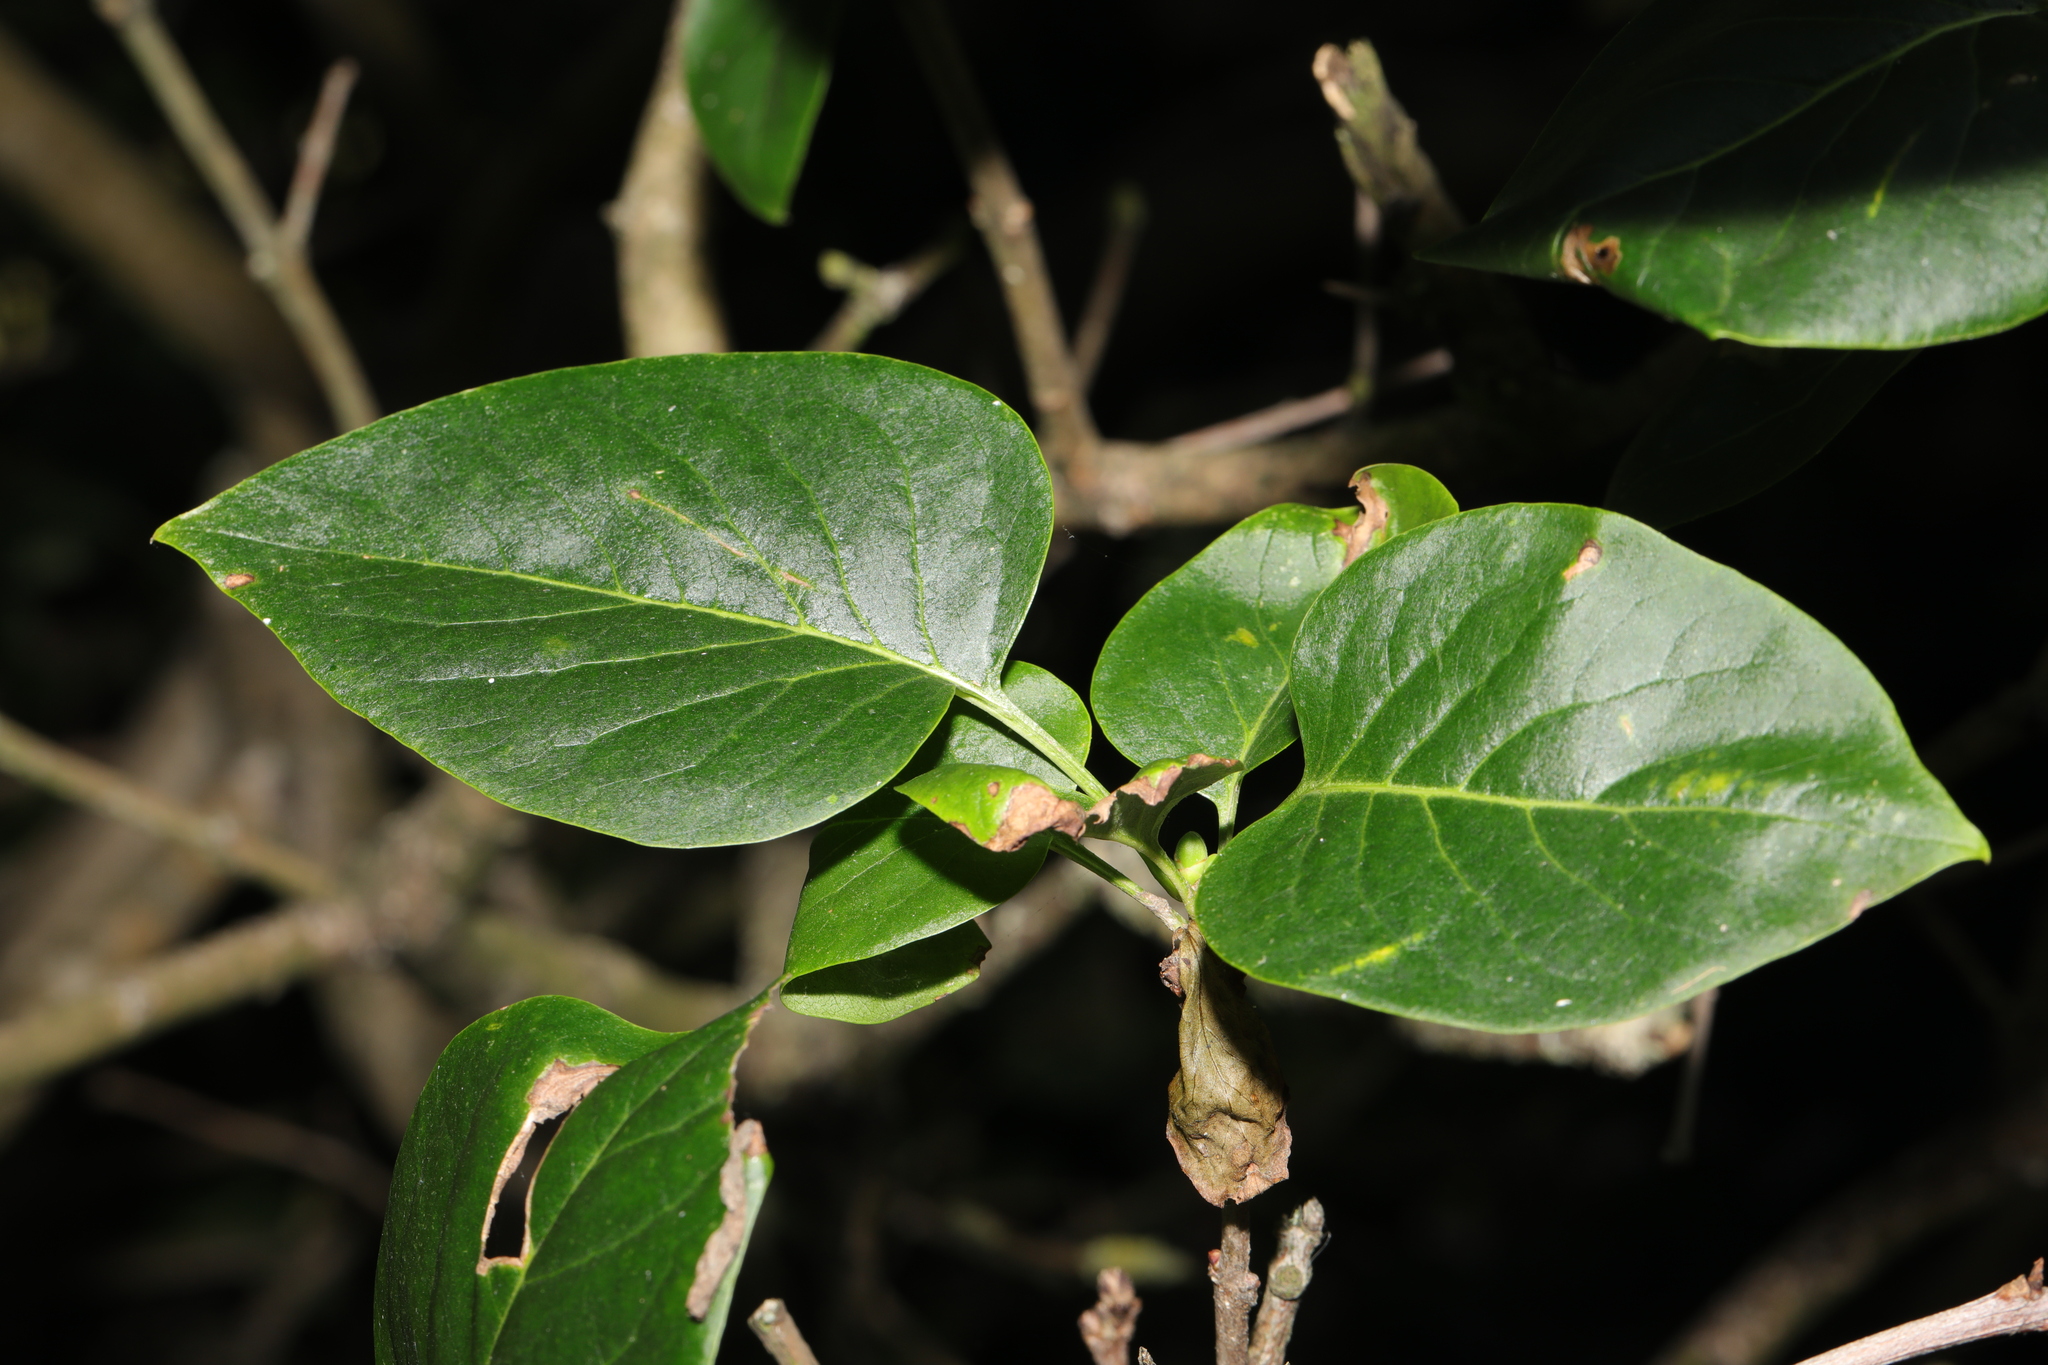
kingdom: Plantae
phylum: Tracheophyta
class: Magnoliopsida
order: Lamiales
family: Oleaceae
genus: Syringa
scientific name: Syringa vulgaris
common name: Common lilac
